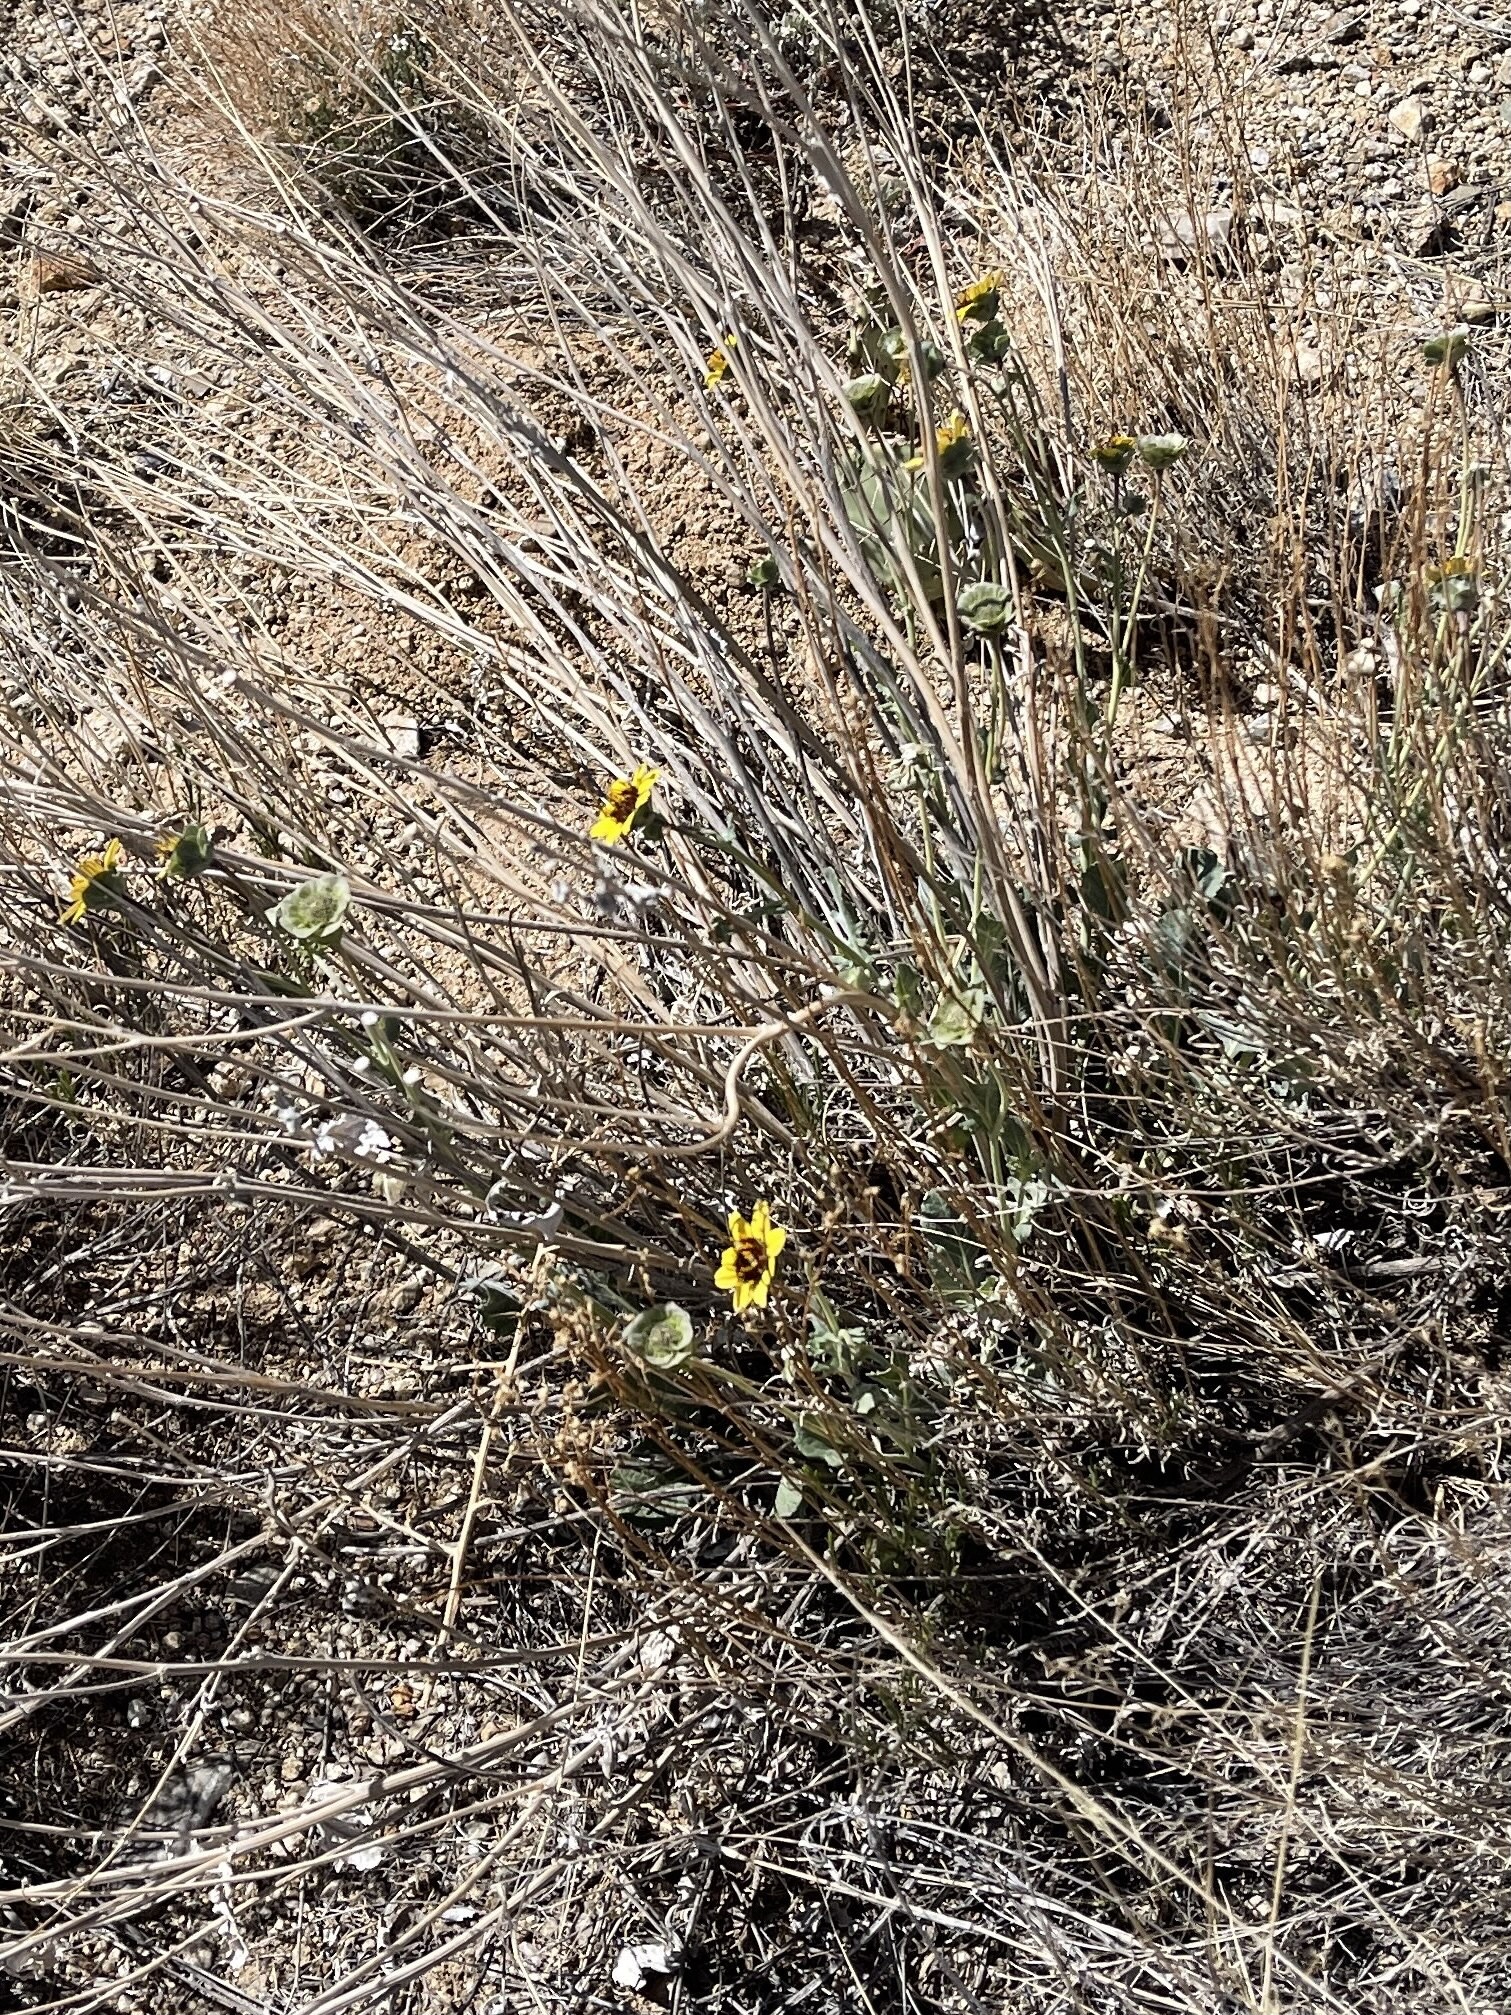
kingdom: Plantae
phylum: Tracheophyta
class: Magnoliopsida
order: Asterales
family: Asteraceae
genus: Berlandiera
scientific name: Berlandiera lyrata
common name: Chocolate-flower
